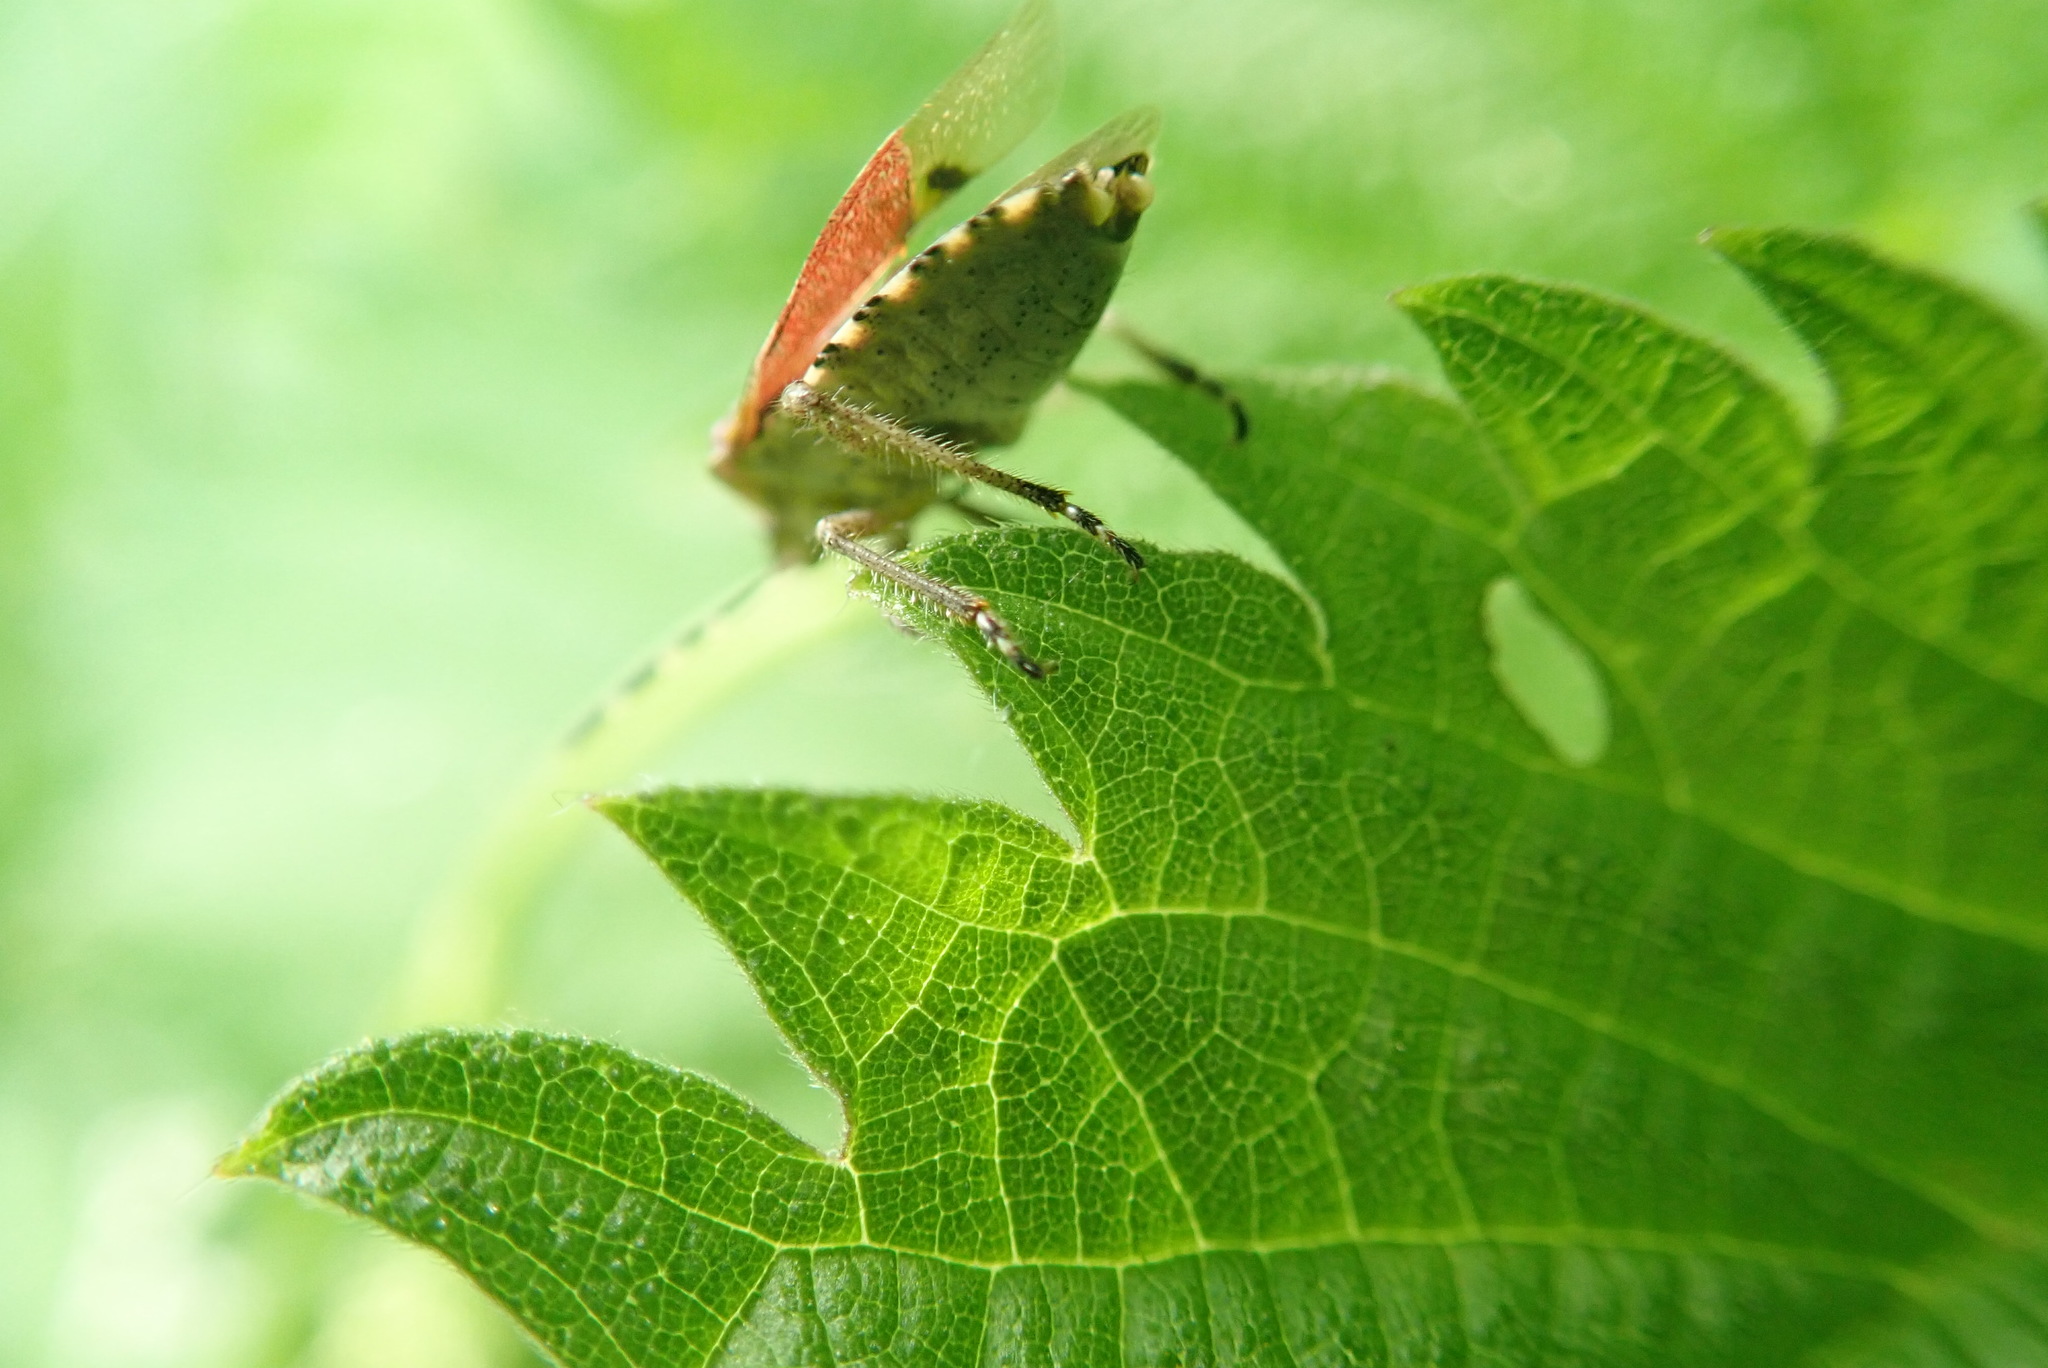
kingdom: Animalia
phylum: Arthropoda
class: Insecta
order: Hemiptera
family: Pentatomidae
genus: Dolycoris
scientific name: Dolycoris baccarum
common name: Sloe bug
